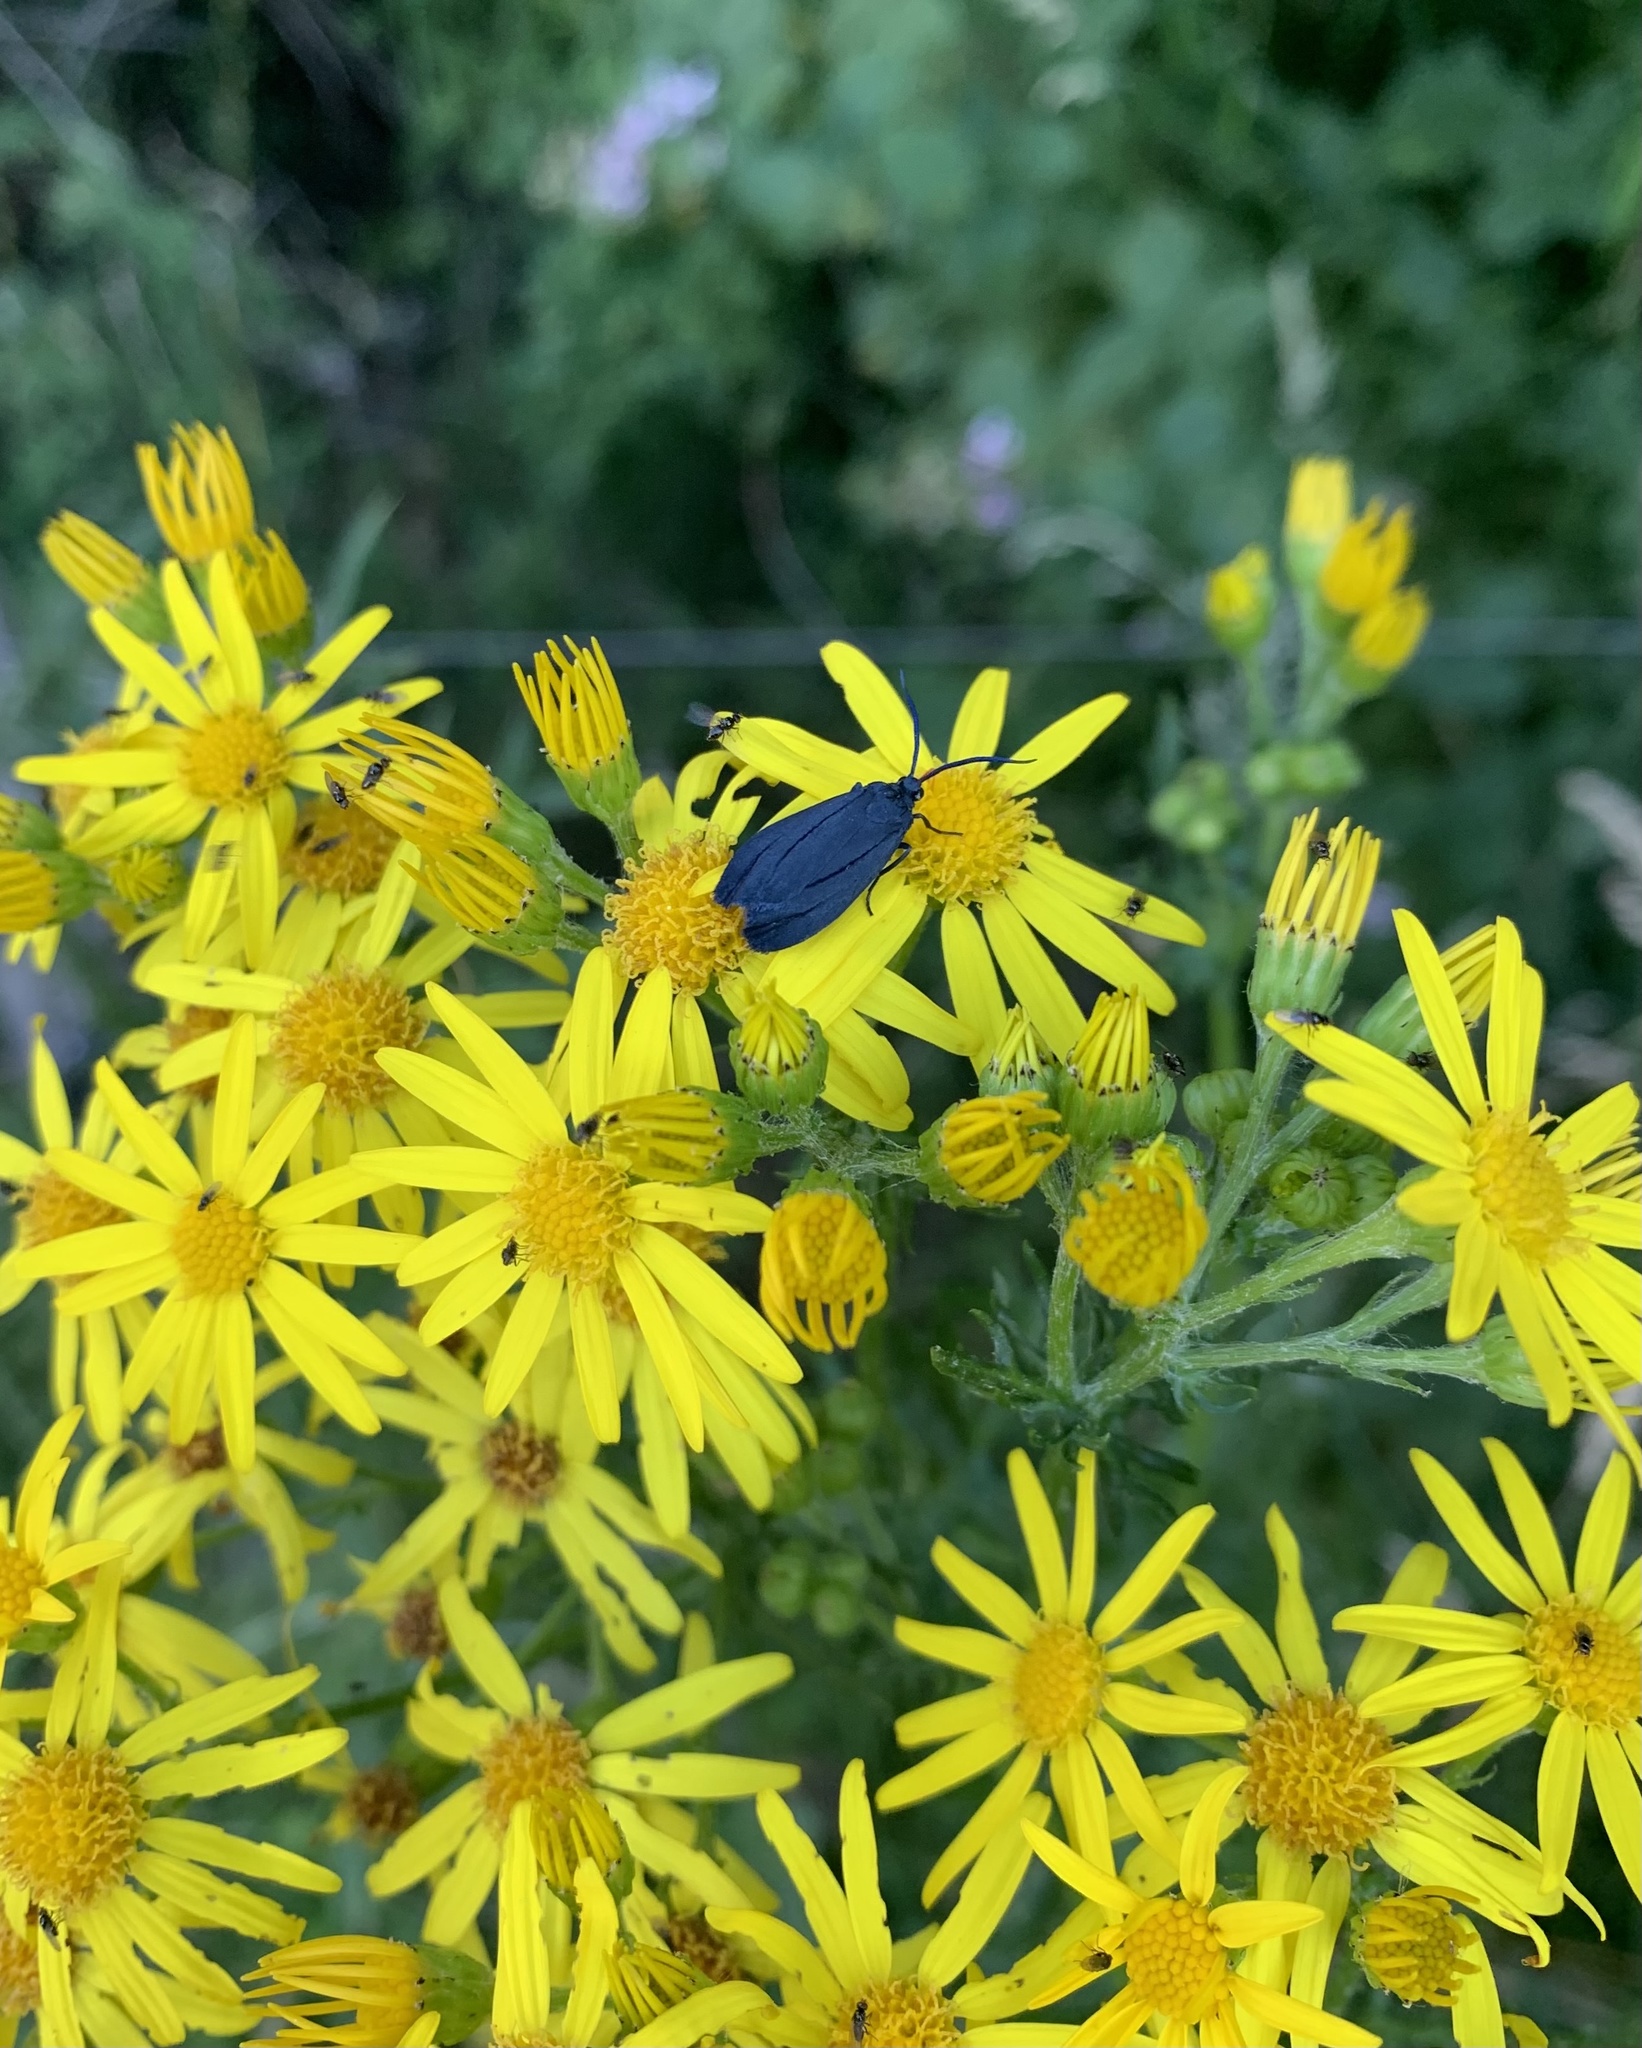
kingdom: Animalia
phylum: Arthropoda
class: Insecta
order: Lepidoptera
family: Zygaenidae
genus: Malamblia
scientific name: Malamblia
